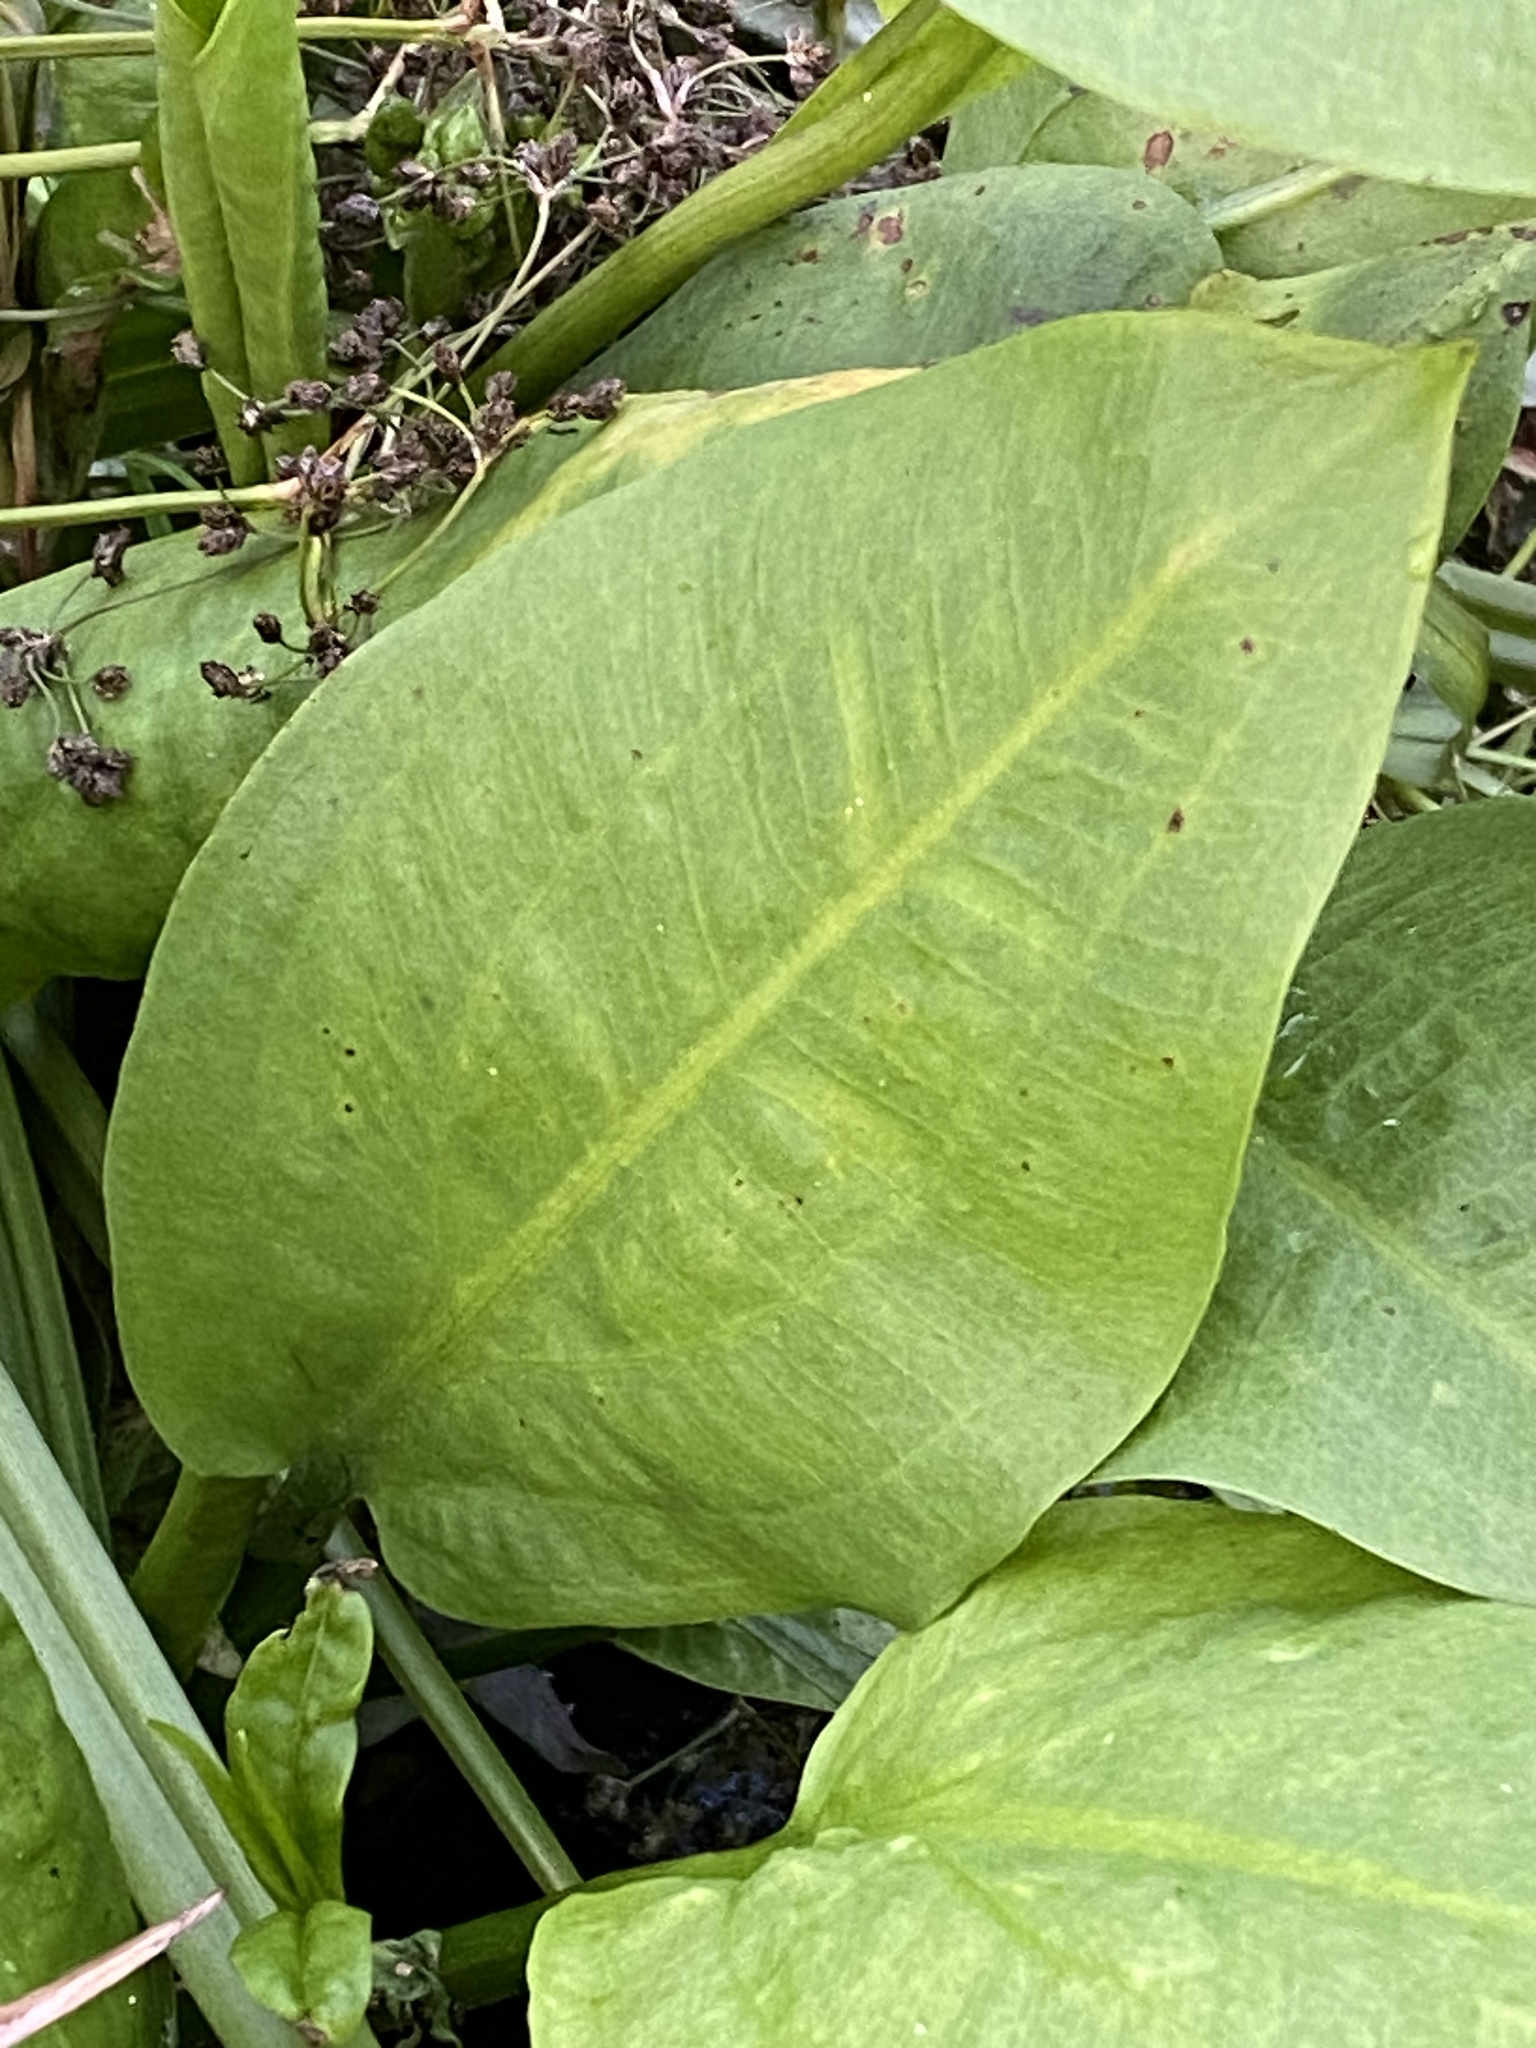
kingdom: Plantae
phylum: Tracheophyta
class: Liliopsida
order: Alismatales
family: Alismataceae
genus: Alisma
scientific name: Alisma plantago-aquatica
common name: Water-plantain
